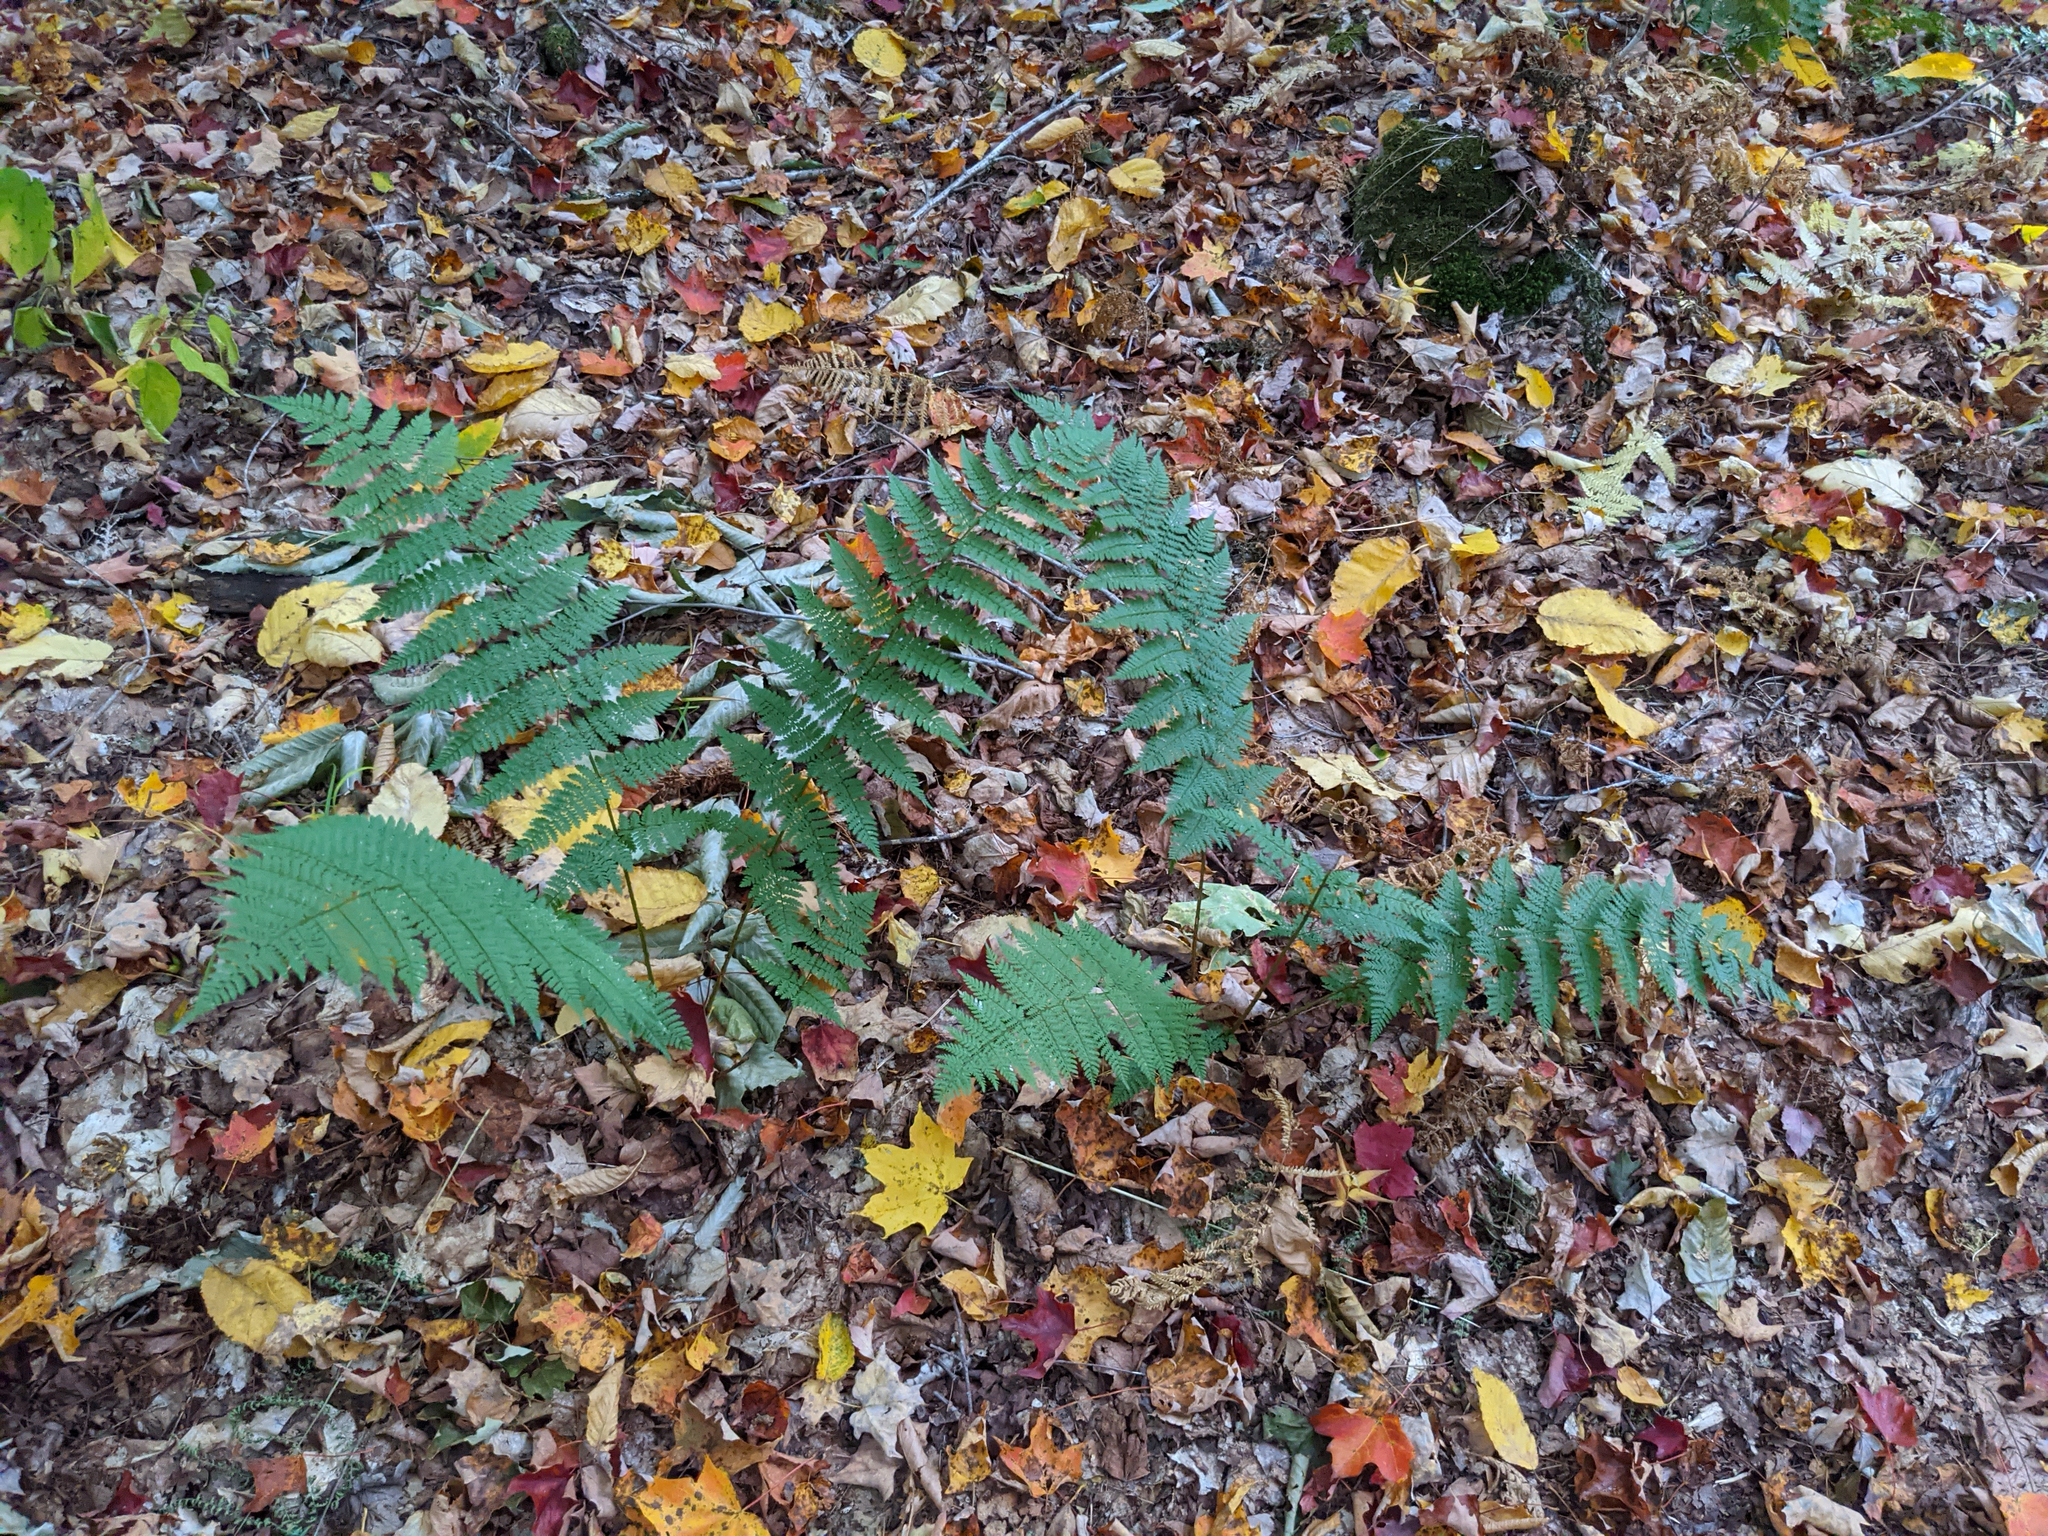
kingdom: Plantae
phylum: Tracheophyta
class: Polypodiopsida
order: Polypodiales
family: Dryopteridaceae
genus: Dryopteris
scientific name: Dryopteris intermedia
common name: Evergreen wood fern
